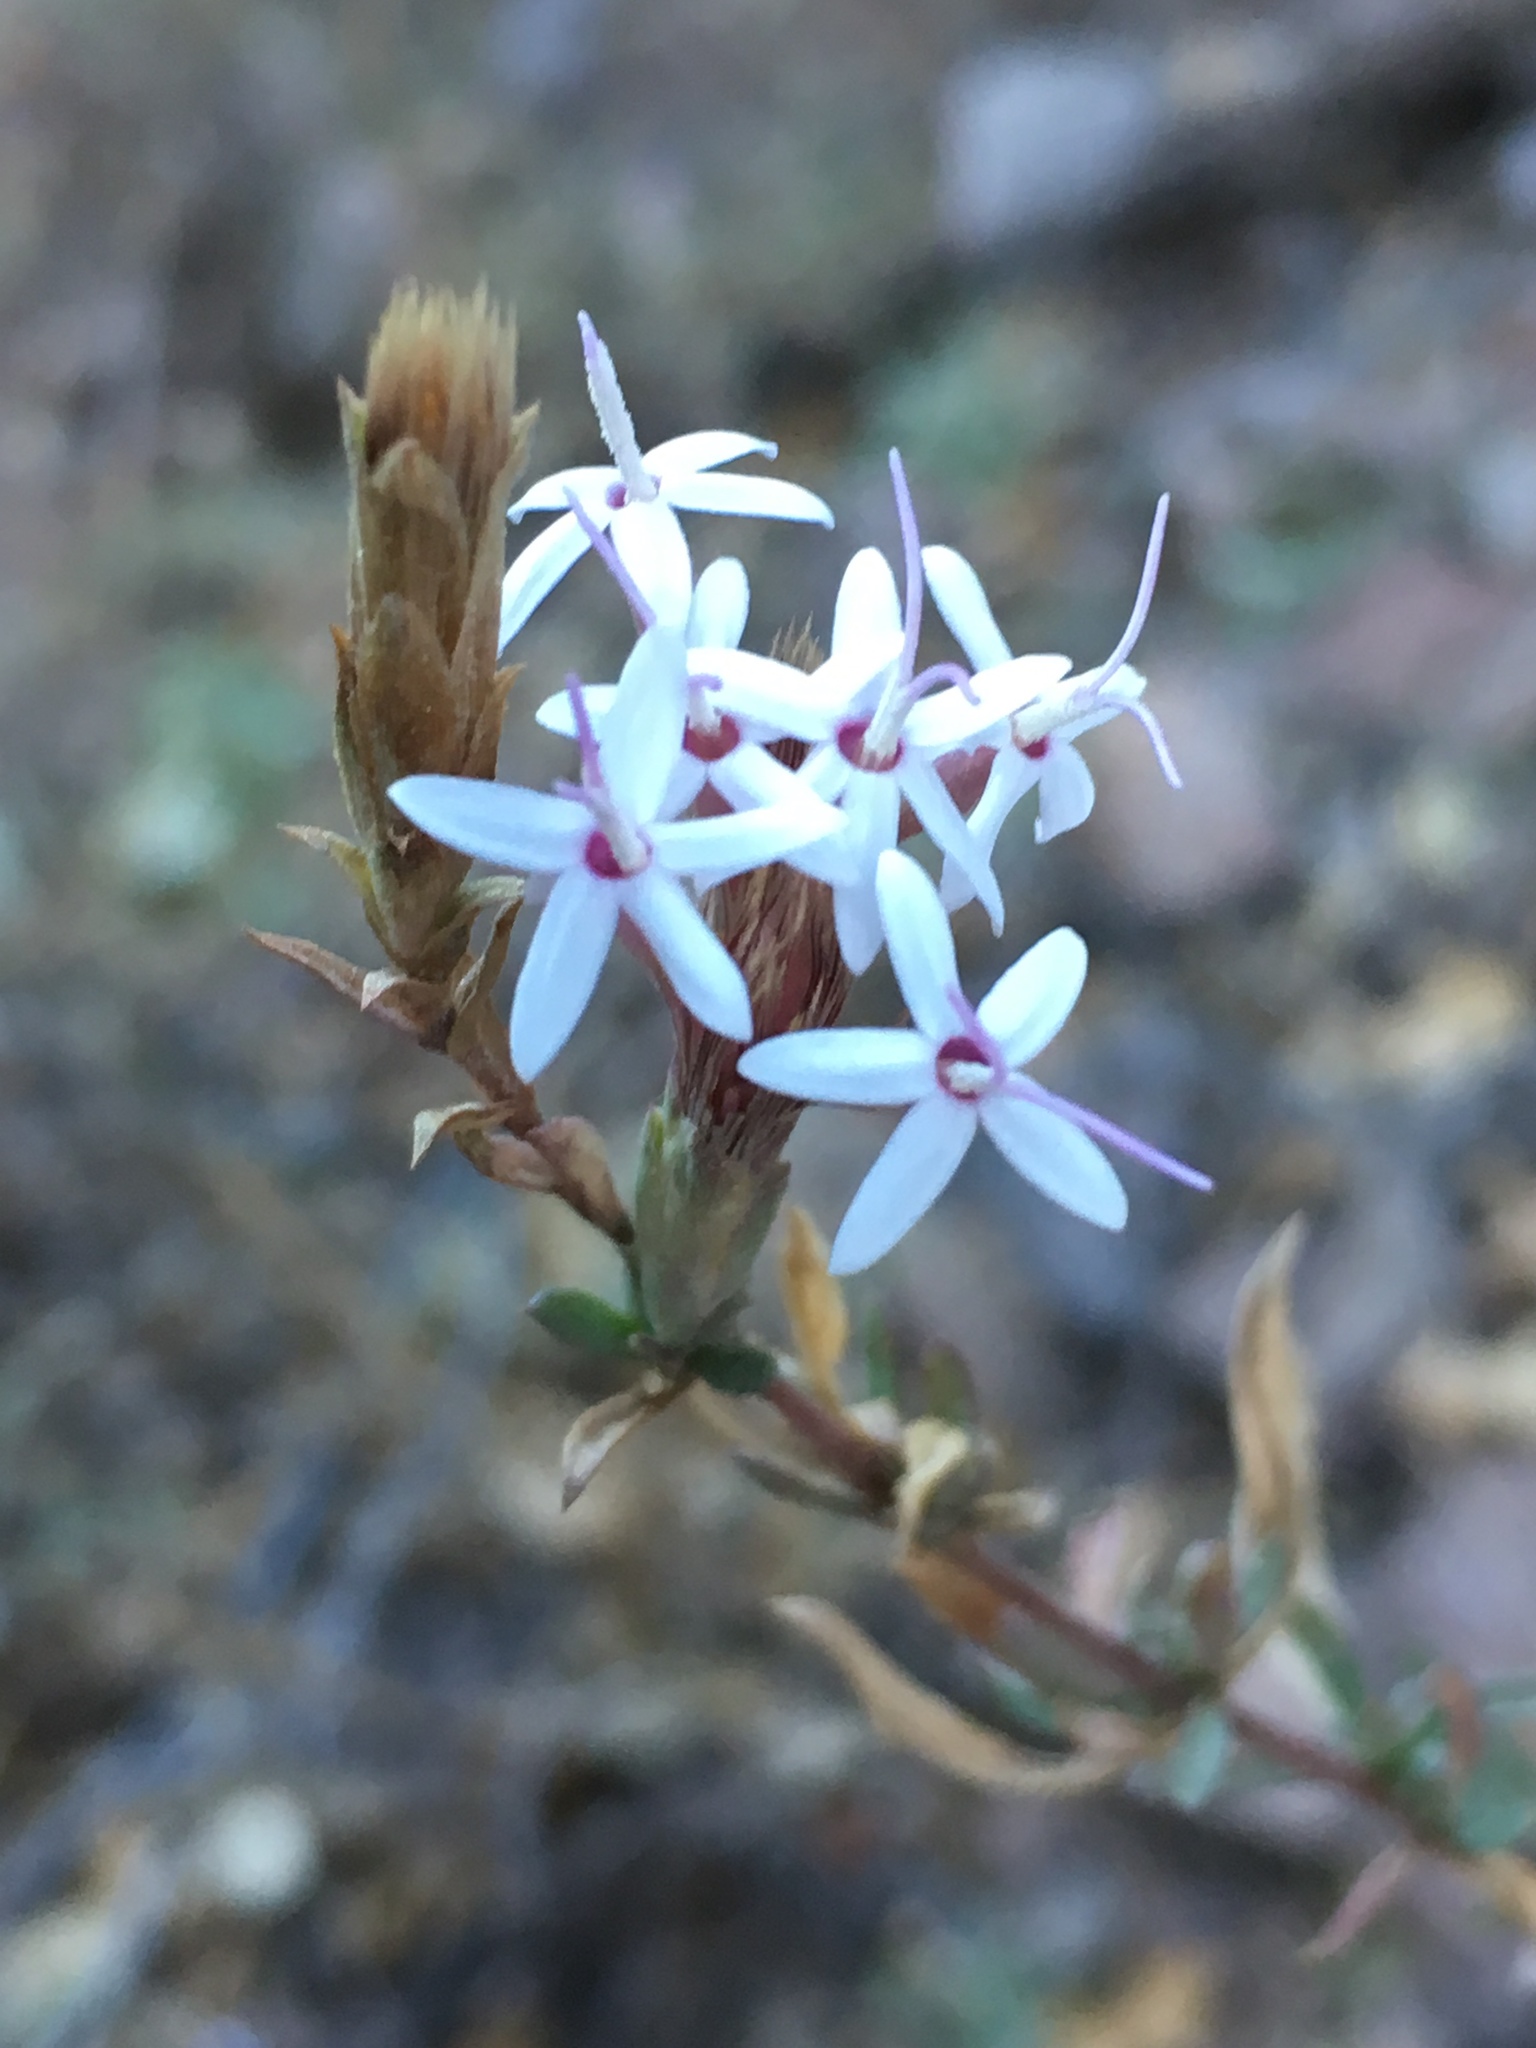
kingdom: Plantae
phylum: Tracheophyta
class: Magnoliopsida
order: Asterales
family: Asteraceae
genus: Carphochaete
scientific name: Carphochaete bigelovii
